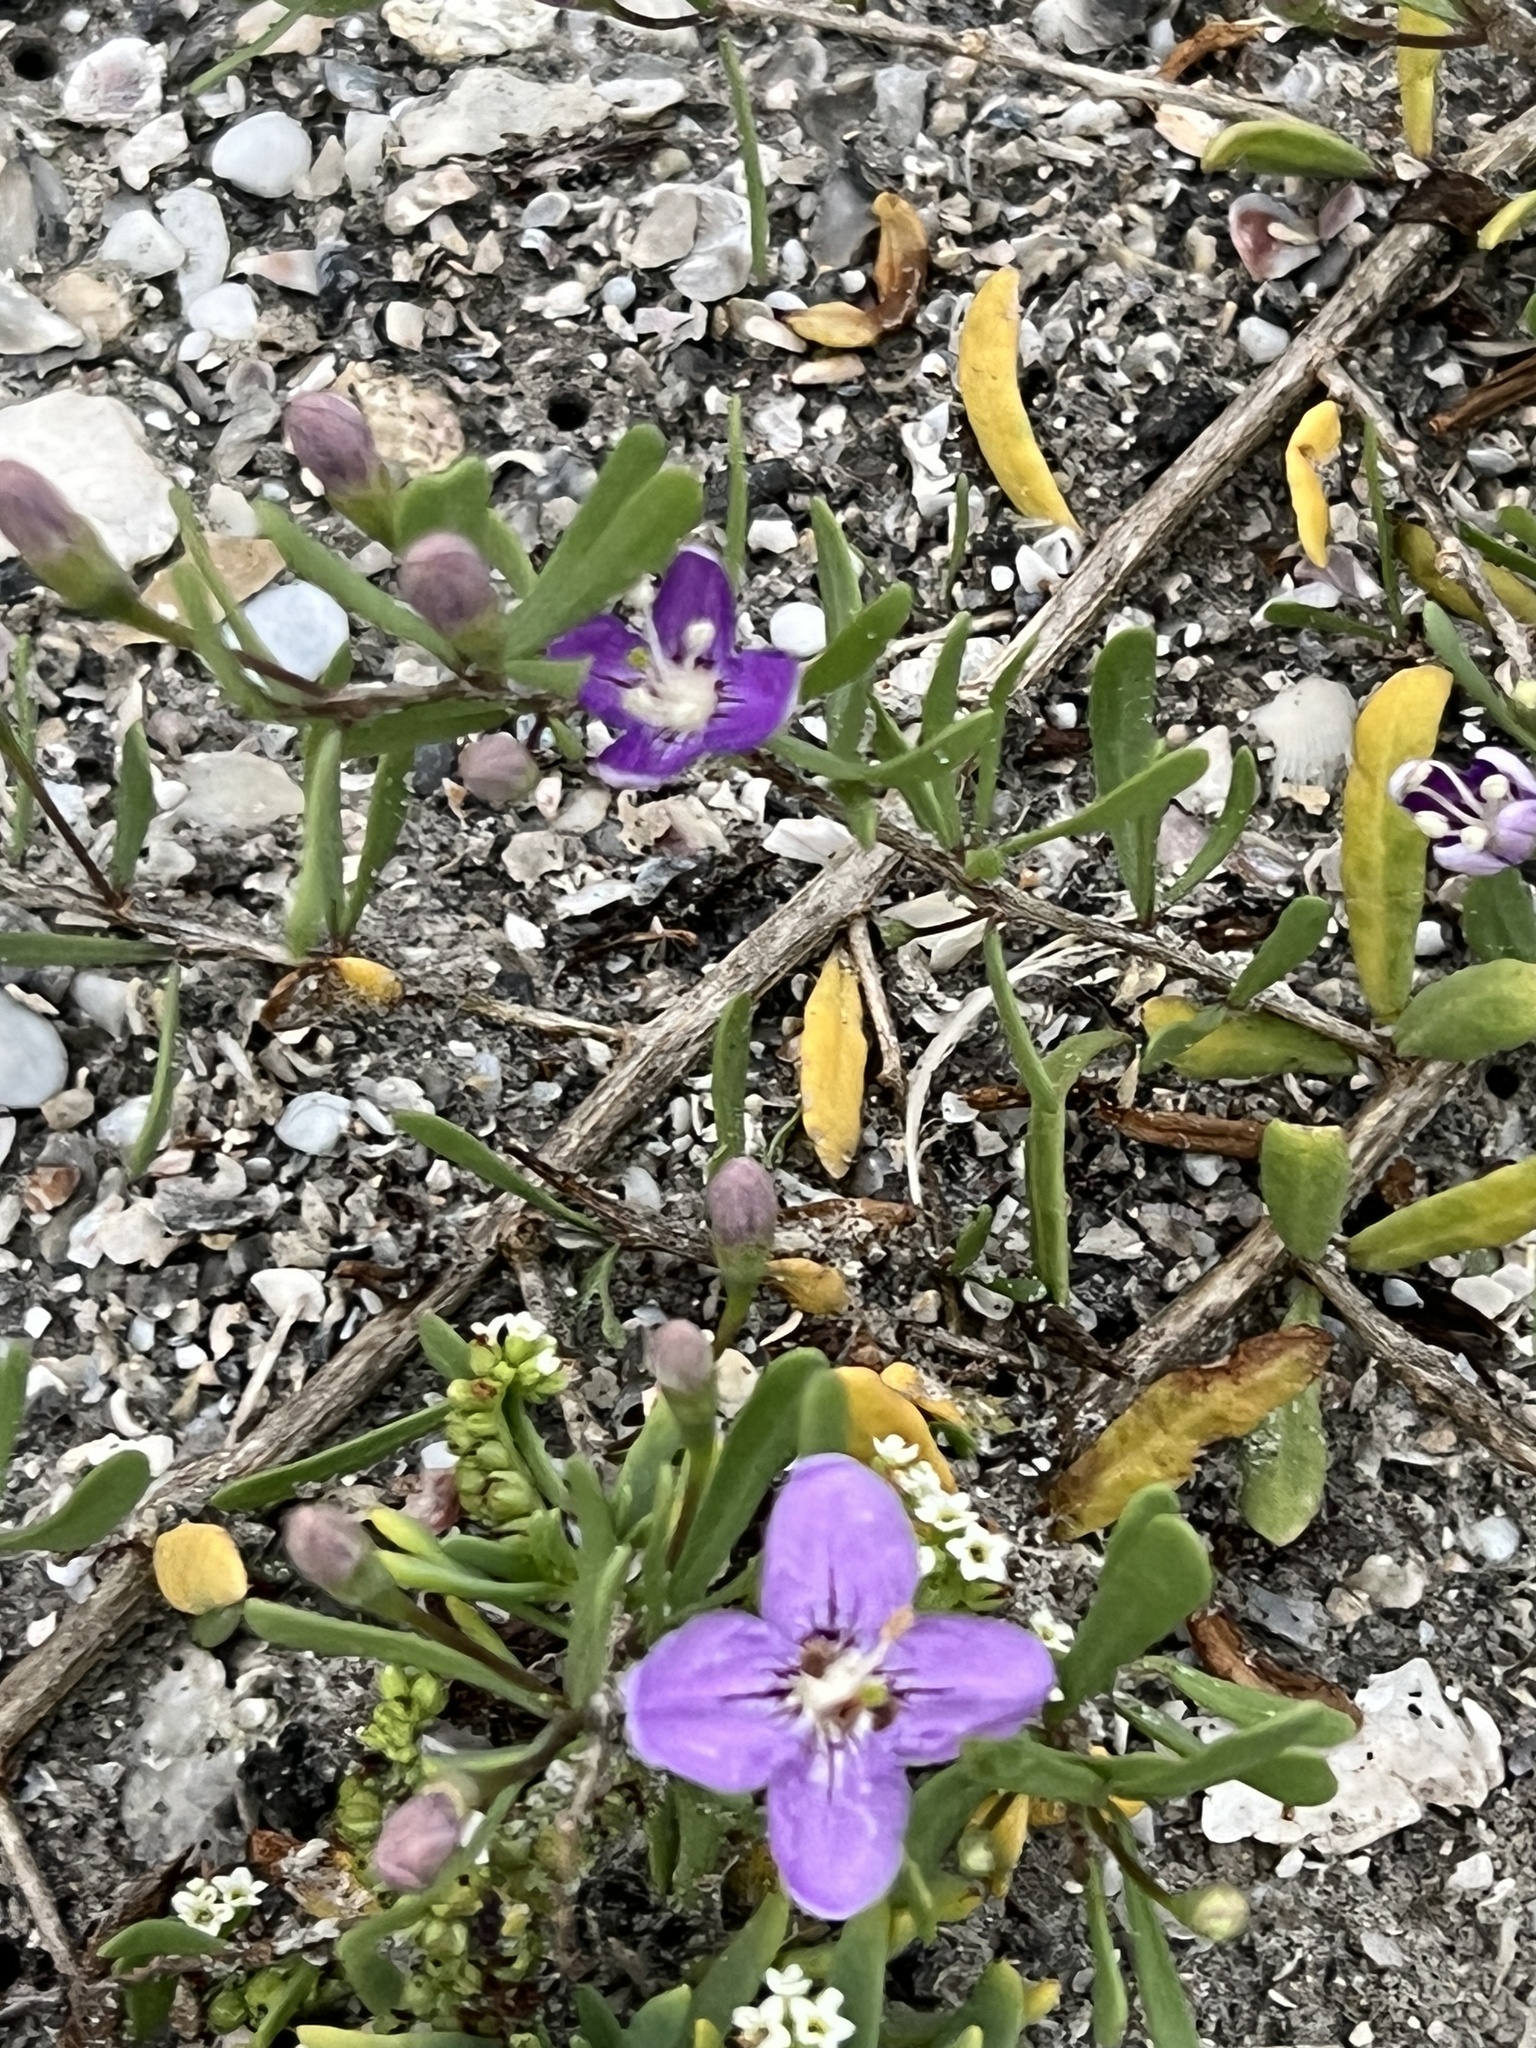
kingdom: Plantae
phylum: Tracheophyta
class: Magnoliopsida
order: Solanales
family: Solanaceae
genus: Lycium
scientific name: Lycium carolinianum
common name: Christmasberry
